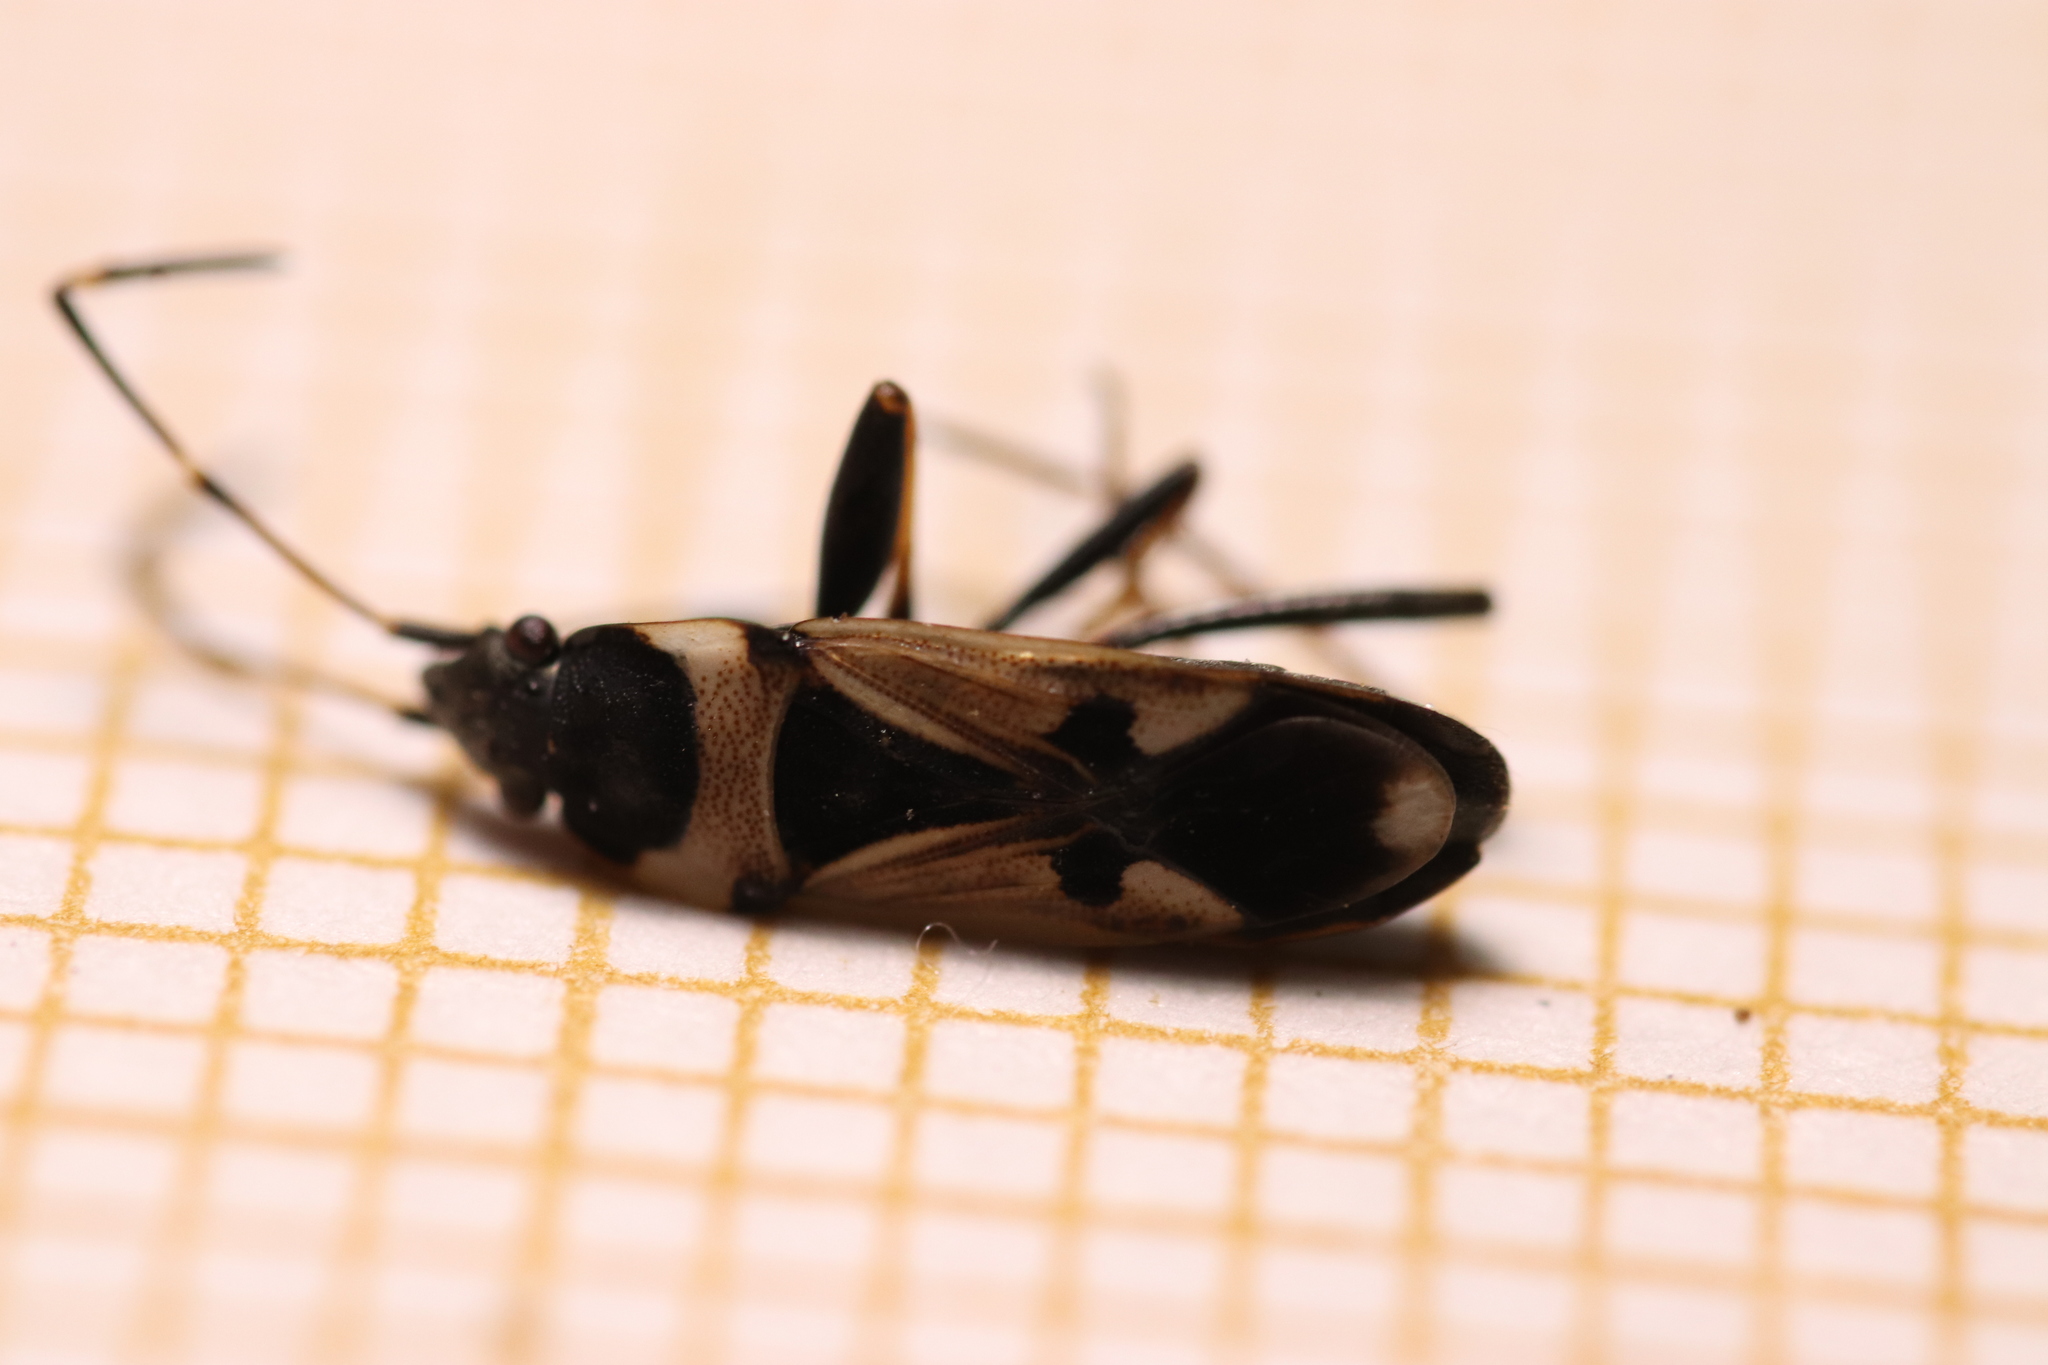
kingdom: Animalia
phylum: Arthropoda
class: Insecta
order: Hemiptera
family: Rhyparochromidae
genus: Raglius
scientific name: Raglius confusus
